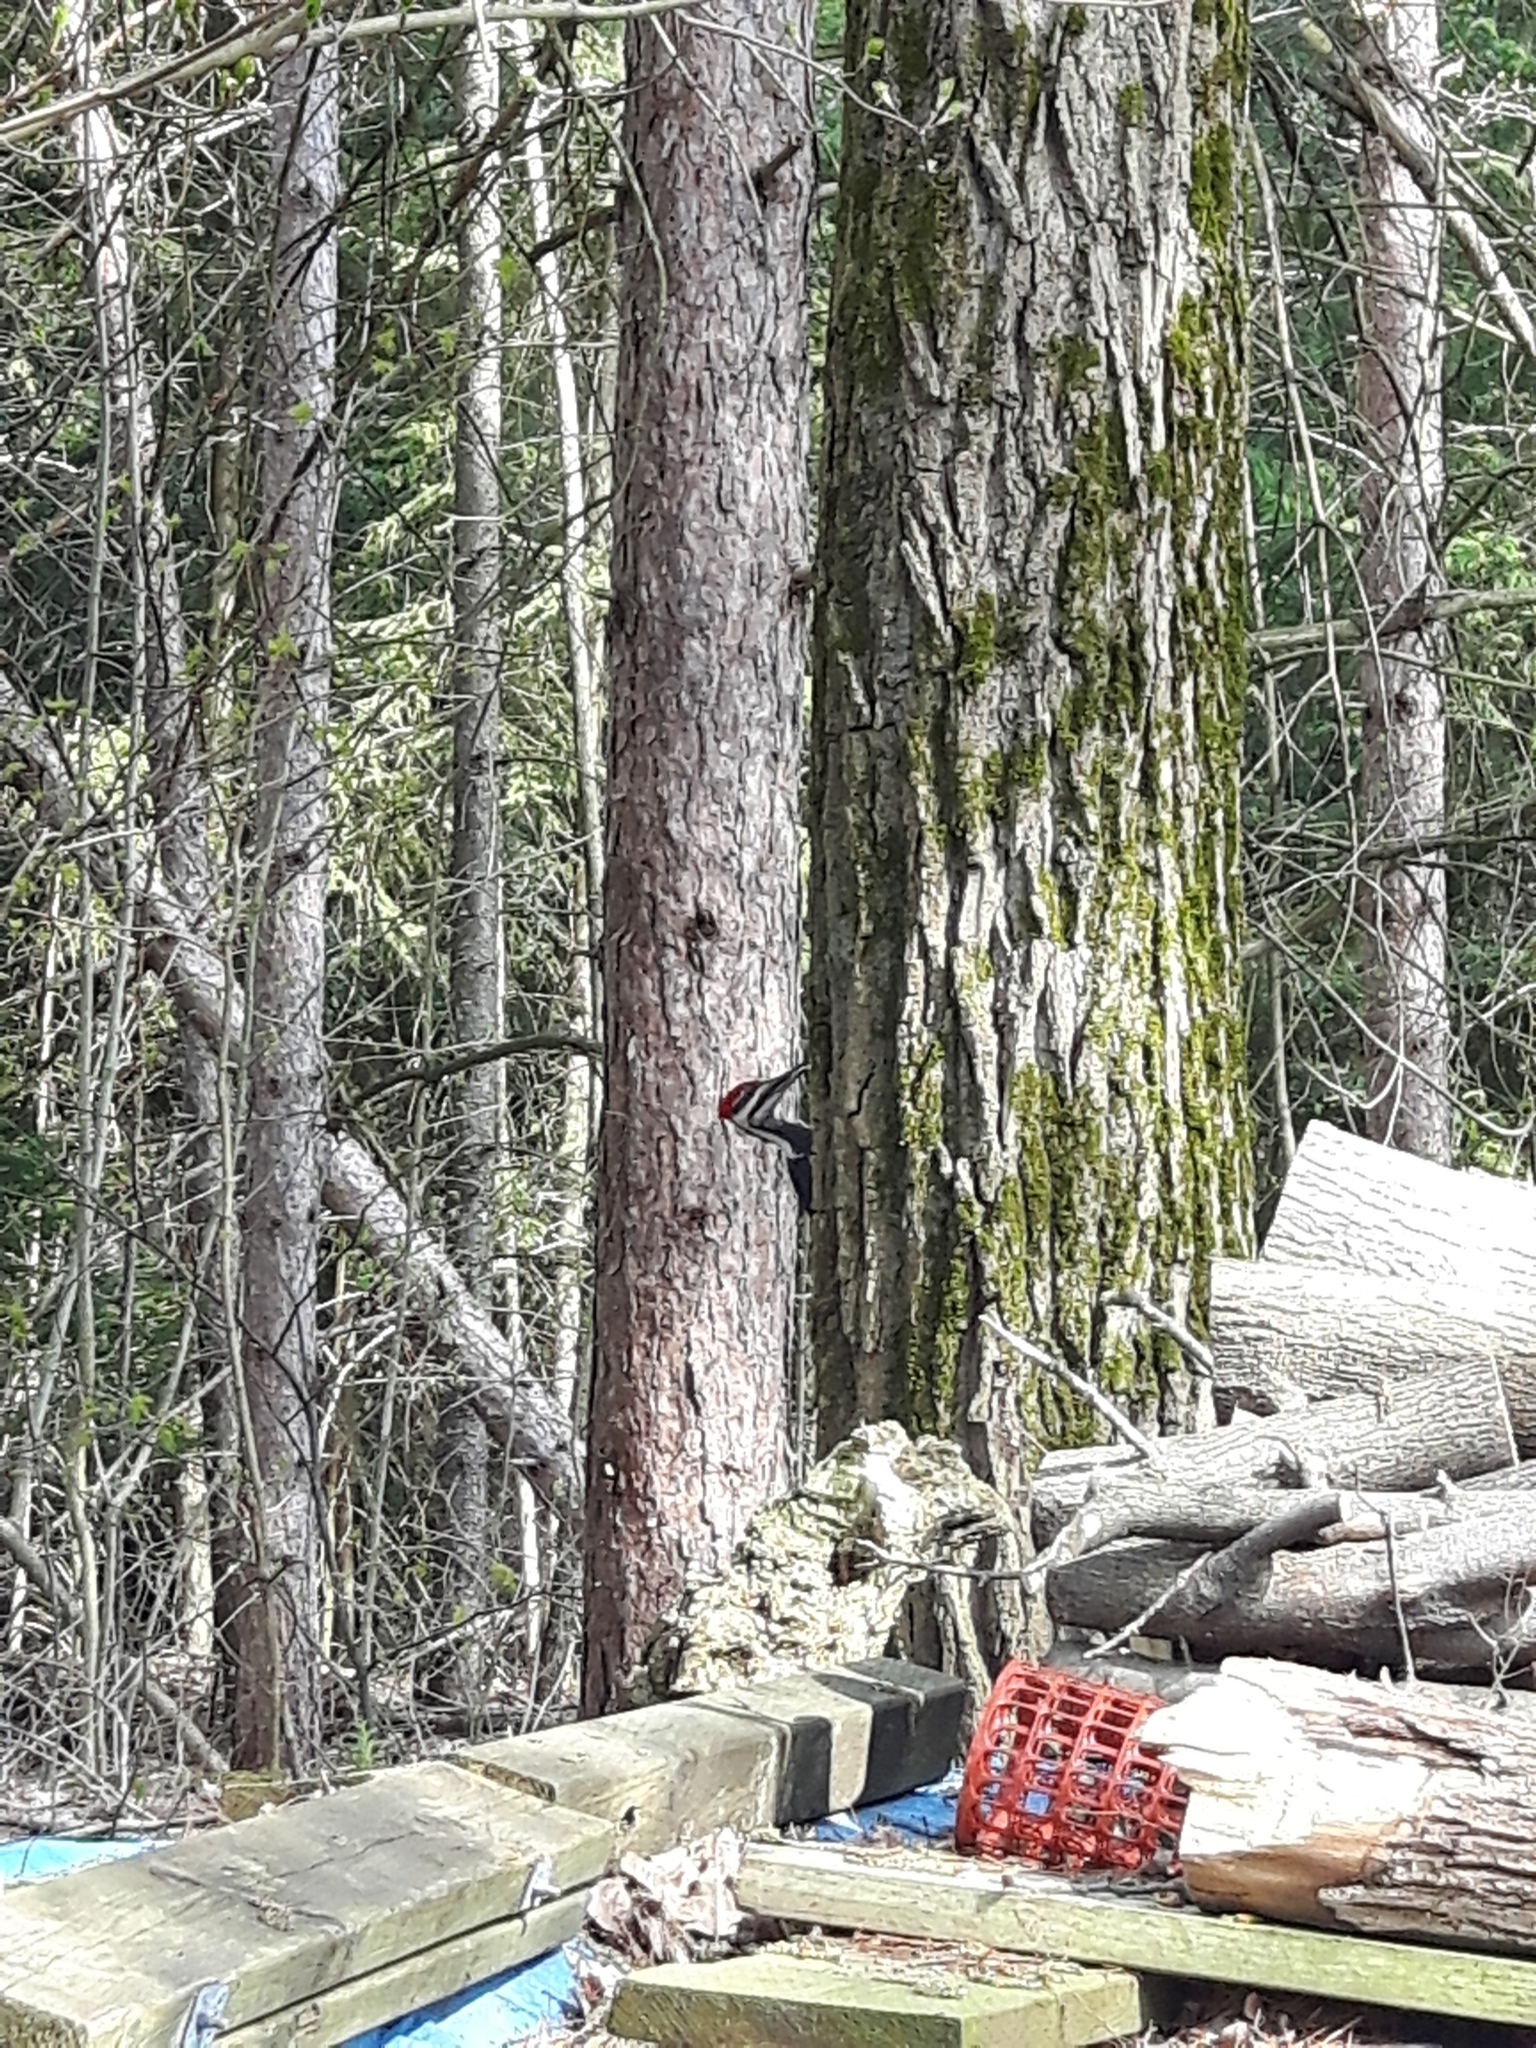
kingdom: Animalia
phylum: Chordata
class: Aves
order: Piciformes
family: Picidae
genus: Dryocopus
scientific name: Dryocopus pileatus
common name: Pileated woodpecker
